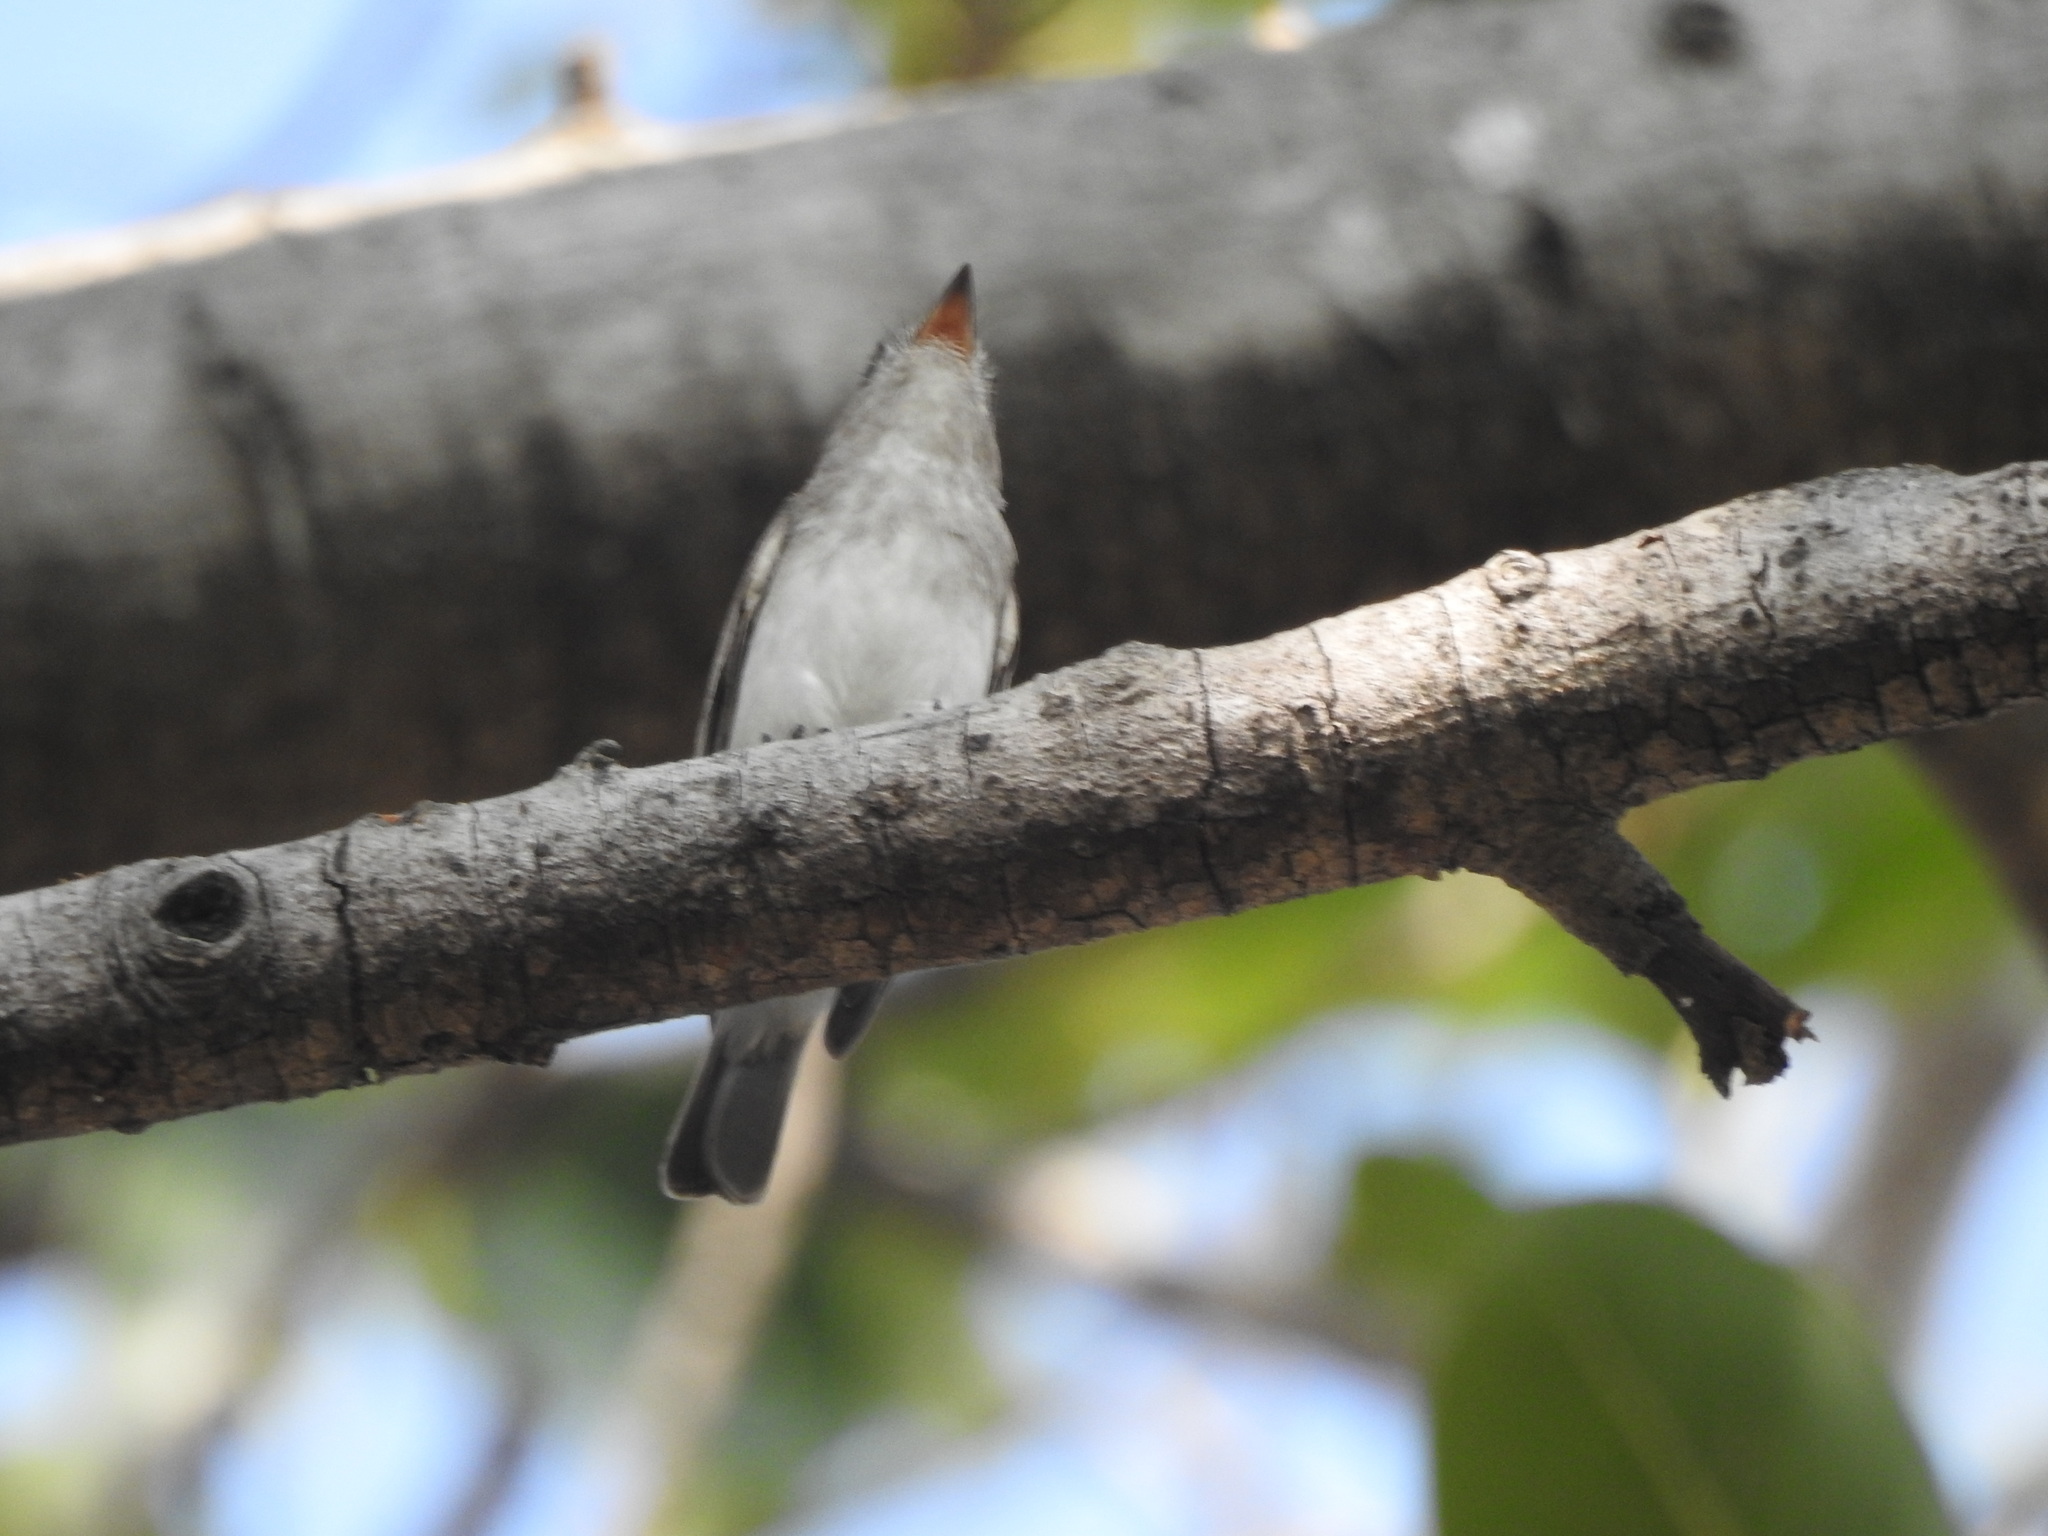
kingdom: Animalia
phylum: Chordata
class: Aves
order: Passeriformes
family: Muscicapidae
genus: Muscicapa
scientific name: Muscicapa latirostris
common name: Asian brown flycatcher
